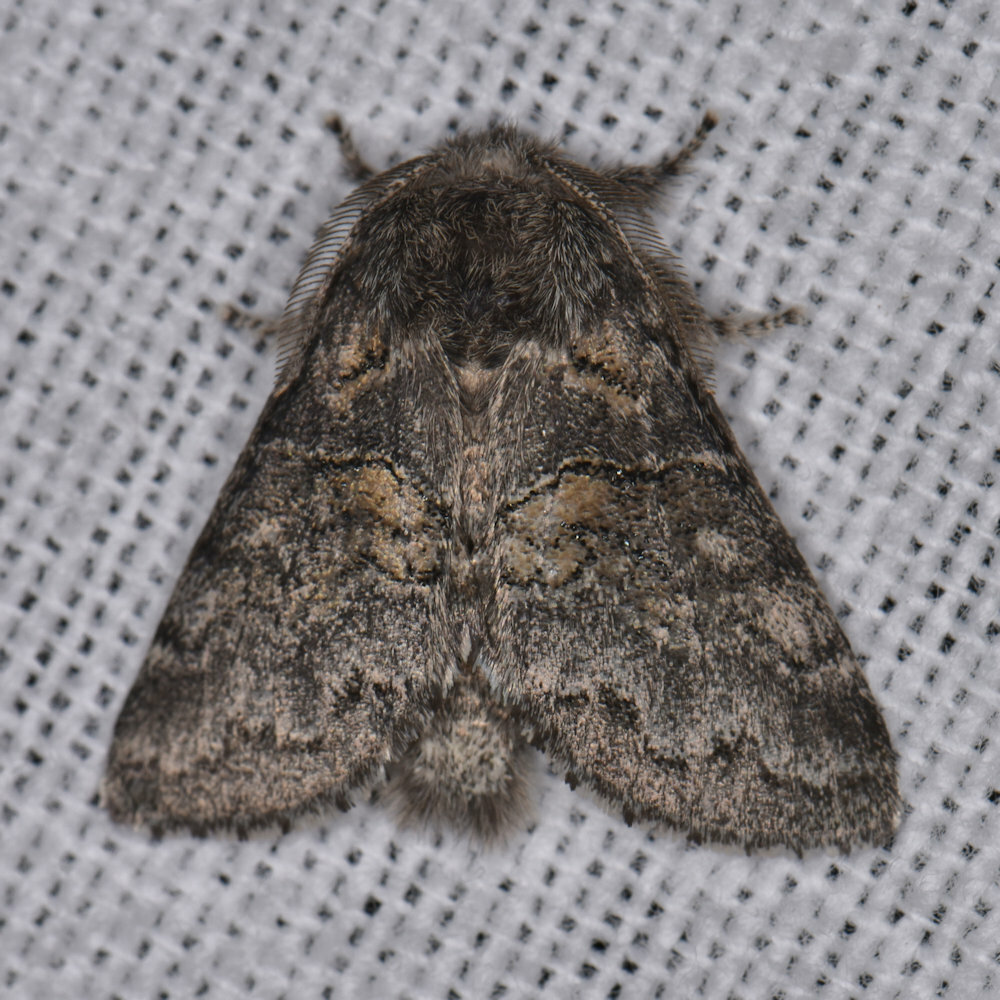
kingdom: Animalia
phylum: Arthropoda
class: Insecta
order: Lepidoptera
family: Notodontidae
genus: Gluphisia
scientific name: Gluphisia septentrionis
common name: Common gluphisia
